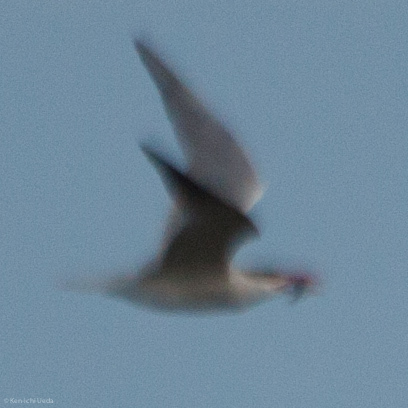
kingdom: Animalia
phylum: Chordata
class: Aves
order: Charadriiformes
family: Laridae
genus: Hydroprogne
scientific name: Hydroprogne caspia
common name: Caspian tern
